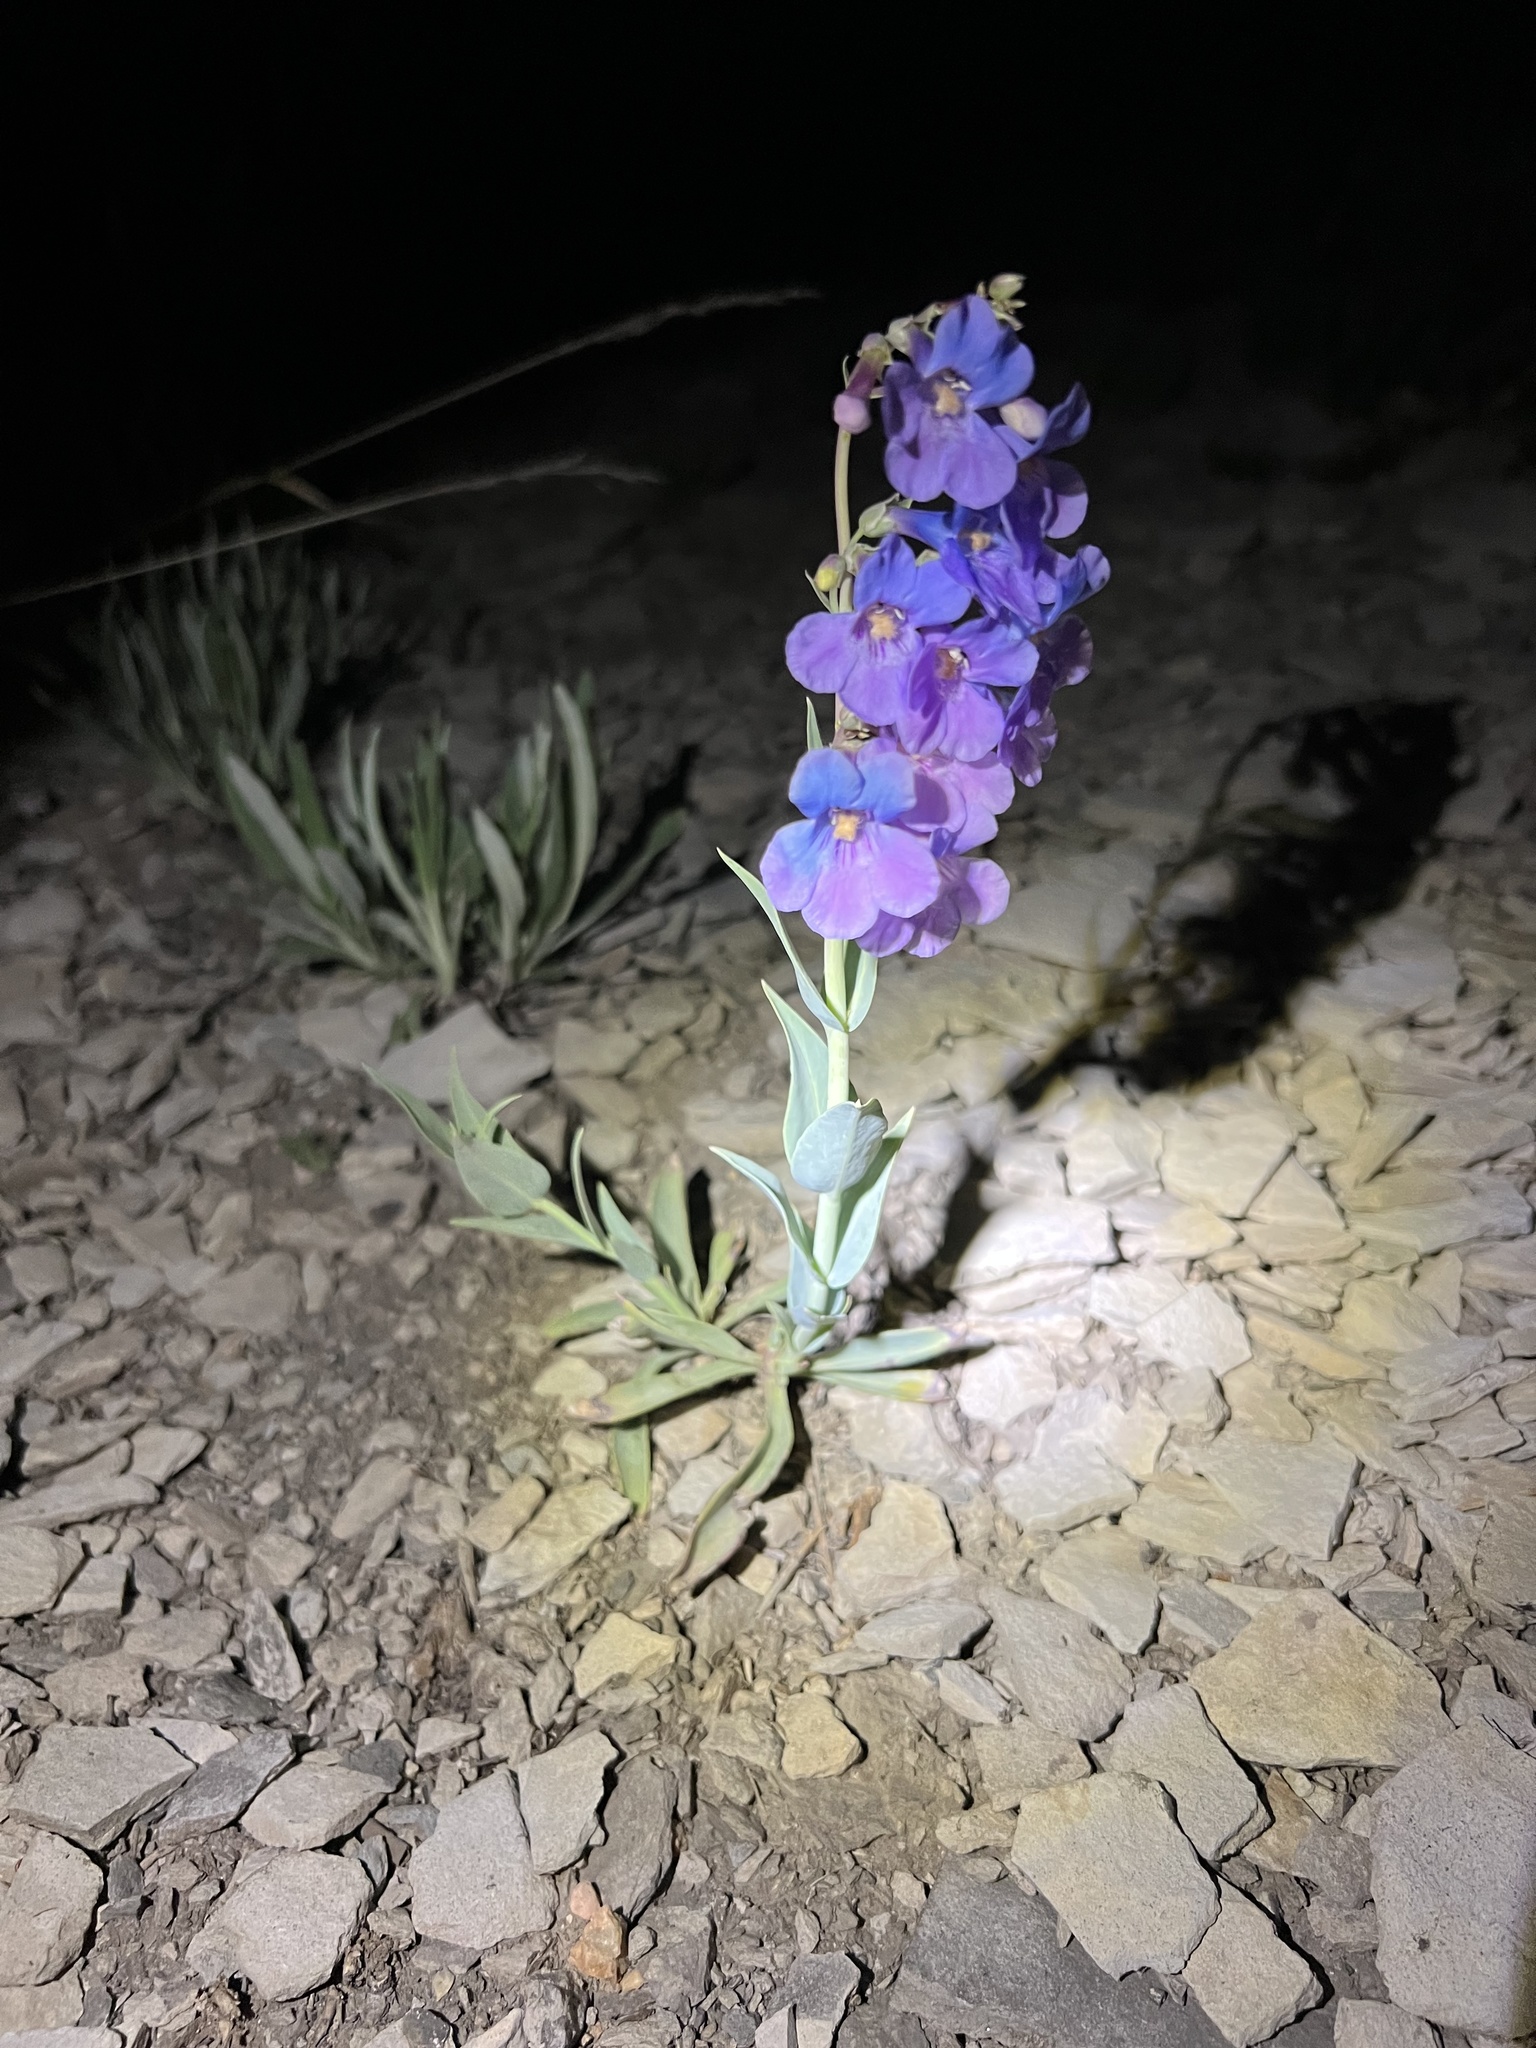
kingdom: Plantae
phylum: Tracheophyta
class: Magnoliopsida
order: Lamiales
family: Plantaginaceae
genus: Penstemon
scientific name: Penstemon secundiflorus
